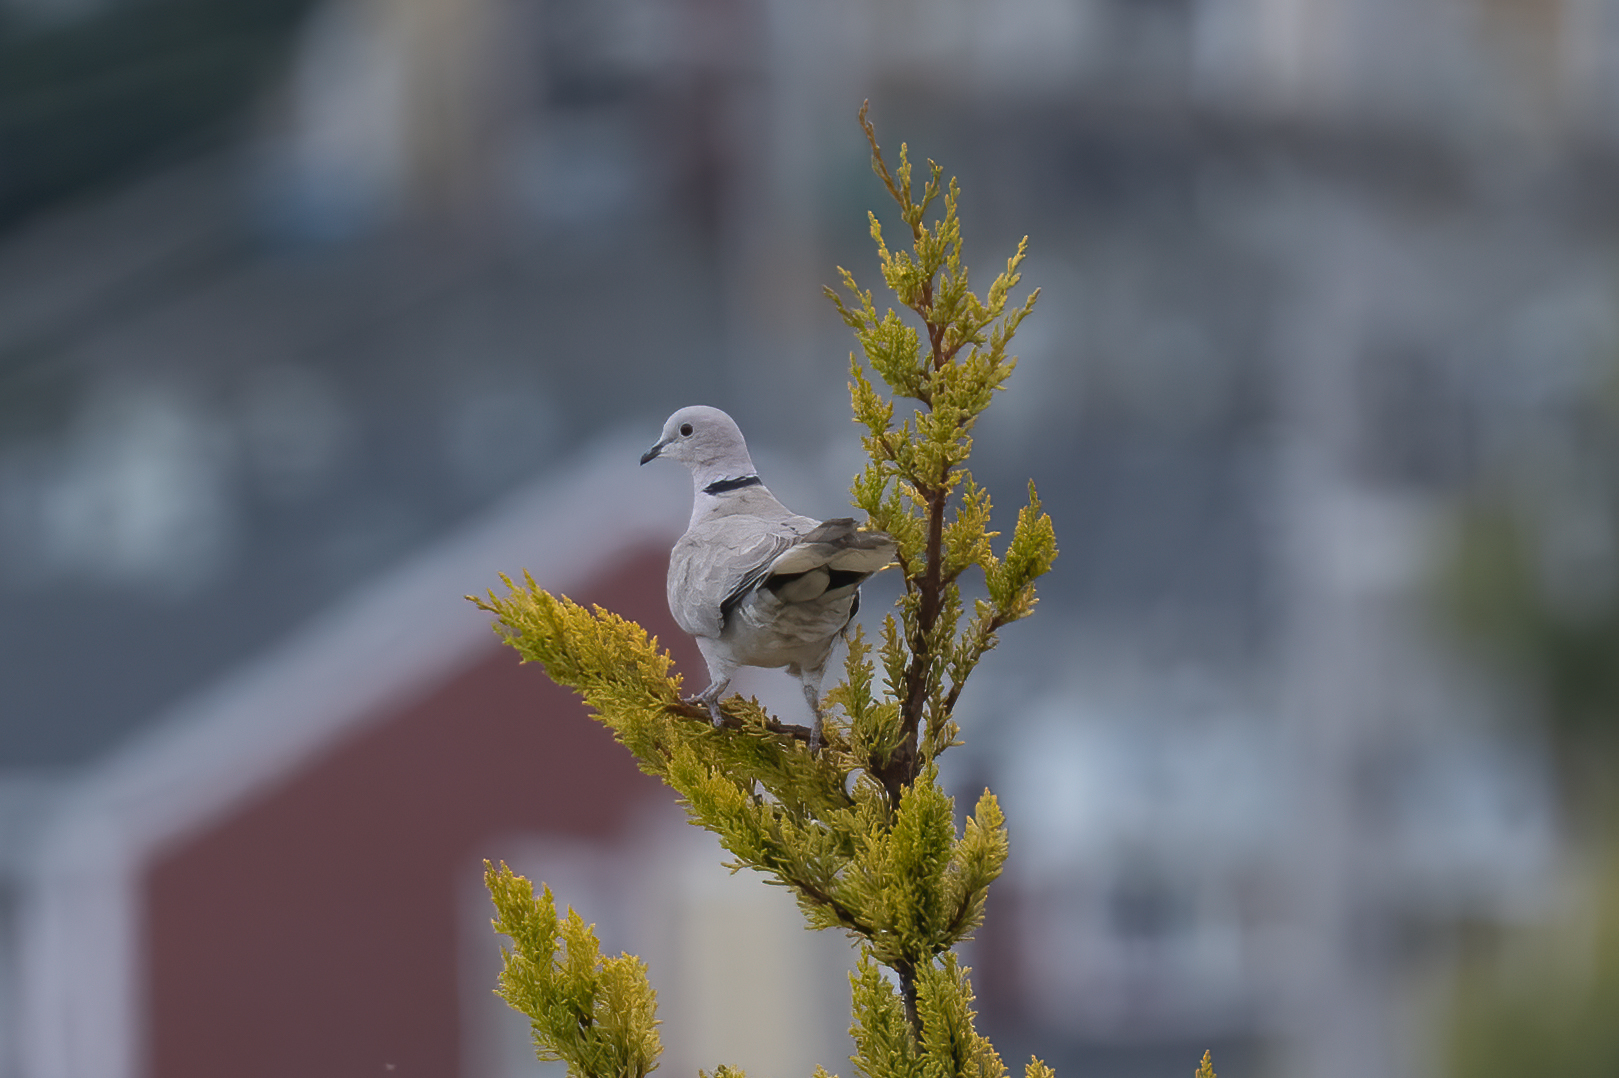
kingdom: Animalia
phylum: Chordata
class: Aves
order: Columbiformes
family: Columbidae
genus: Streptopelia
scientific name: Streptopelia decaocto
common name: Eurasian collared dove
